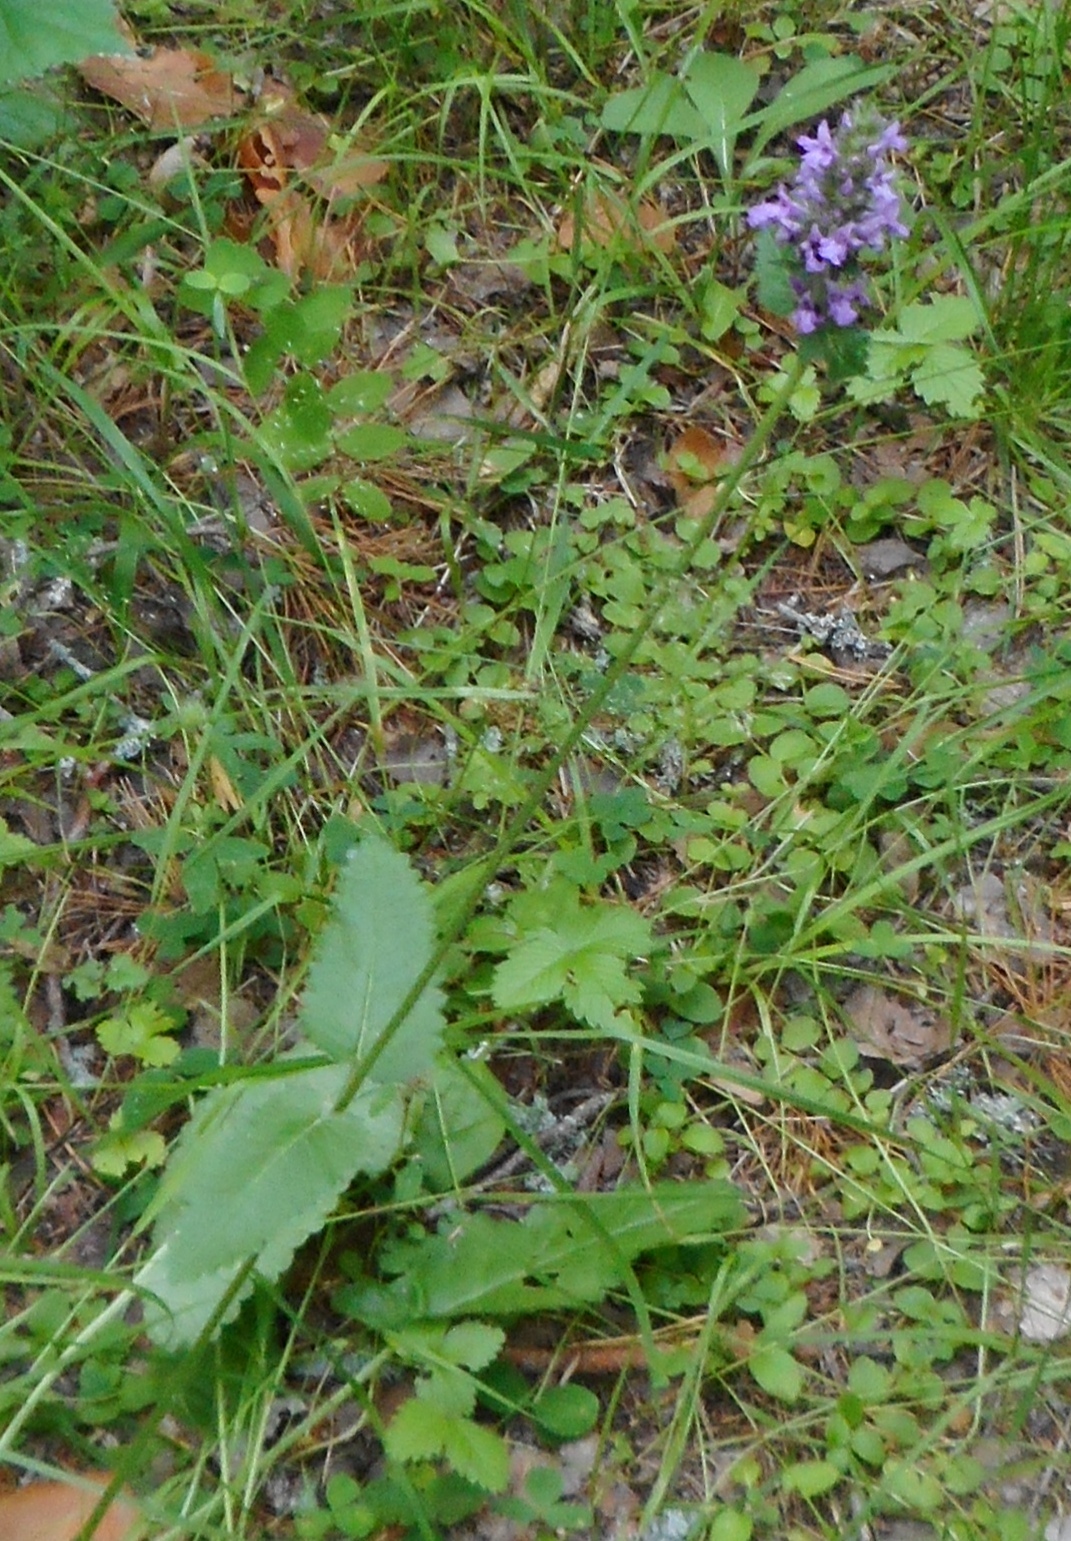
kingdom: Plantae
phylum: Tracheophyta
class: Magnoliopsida
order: Lamiales
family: Lamiaceae
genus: Betonica
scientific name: Betonica officinalis
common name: Bishop's-wort
